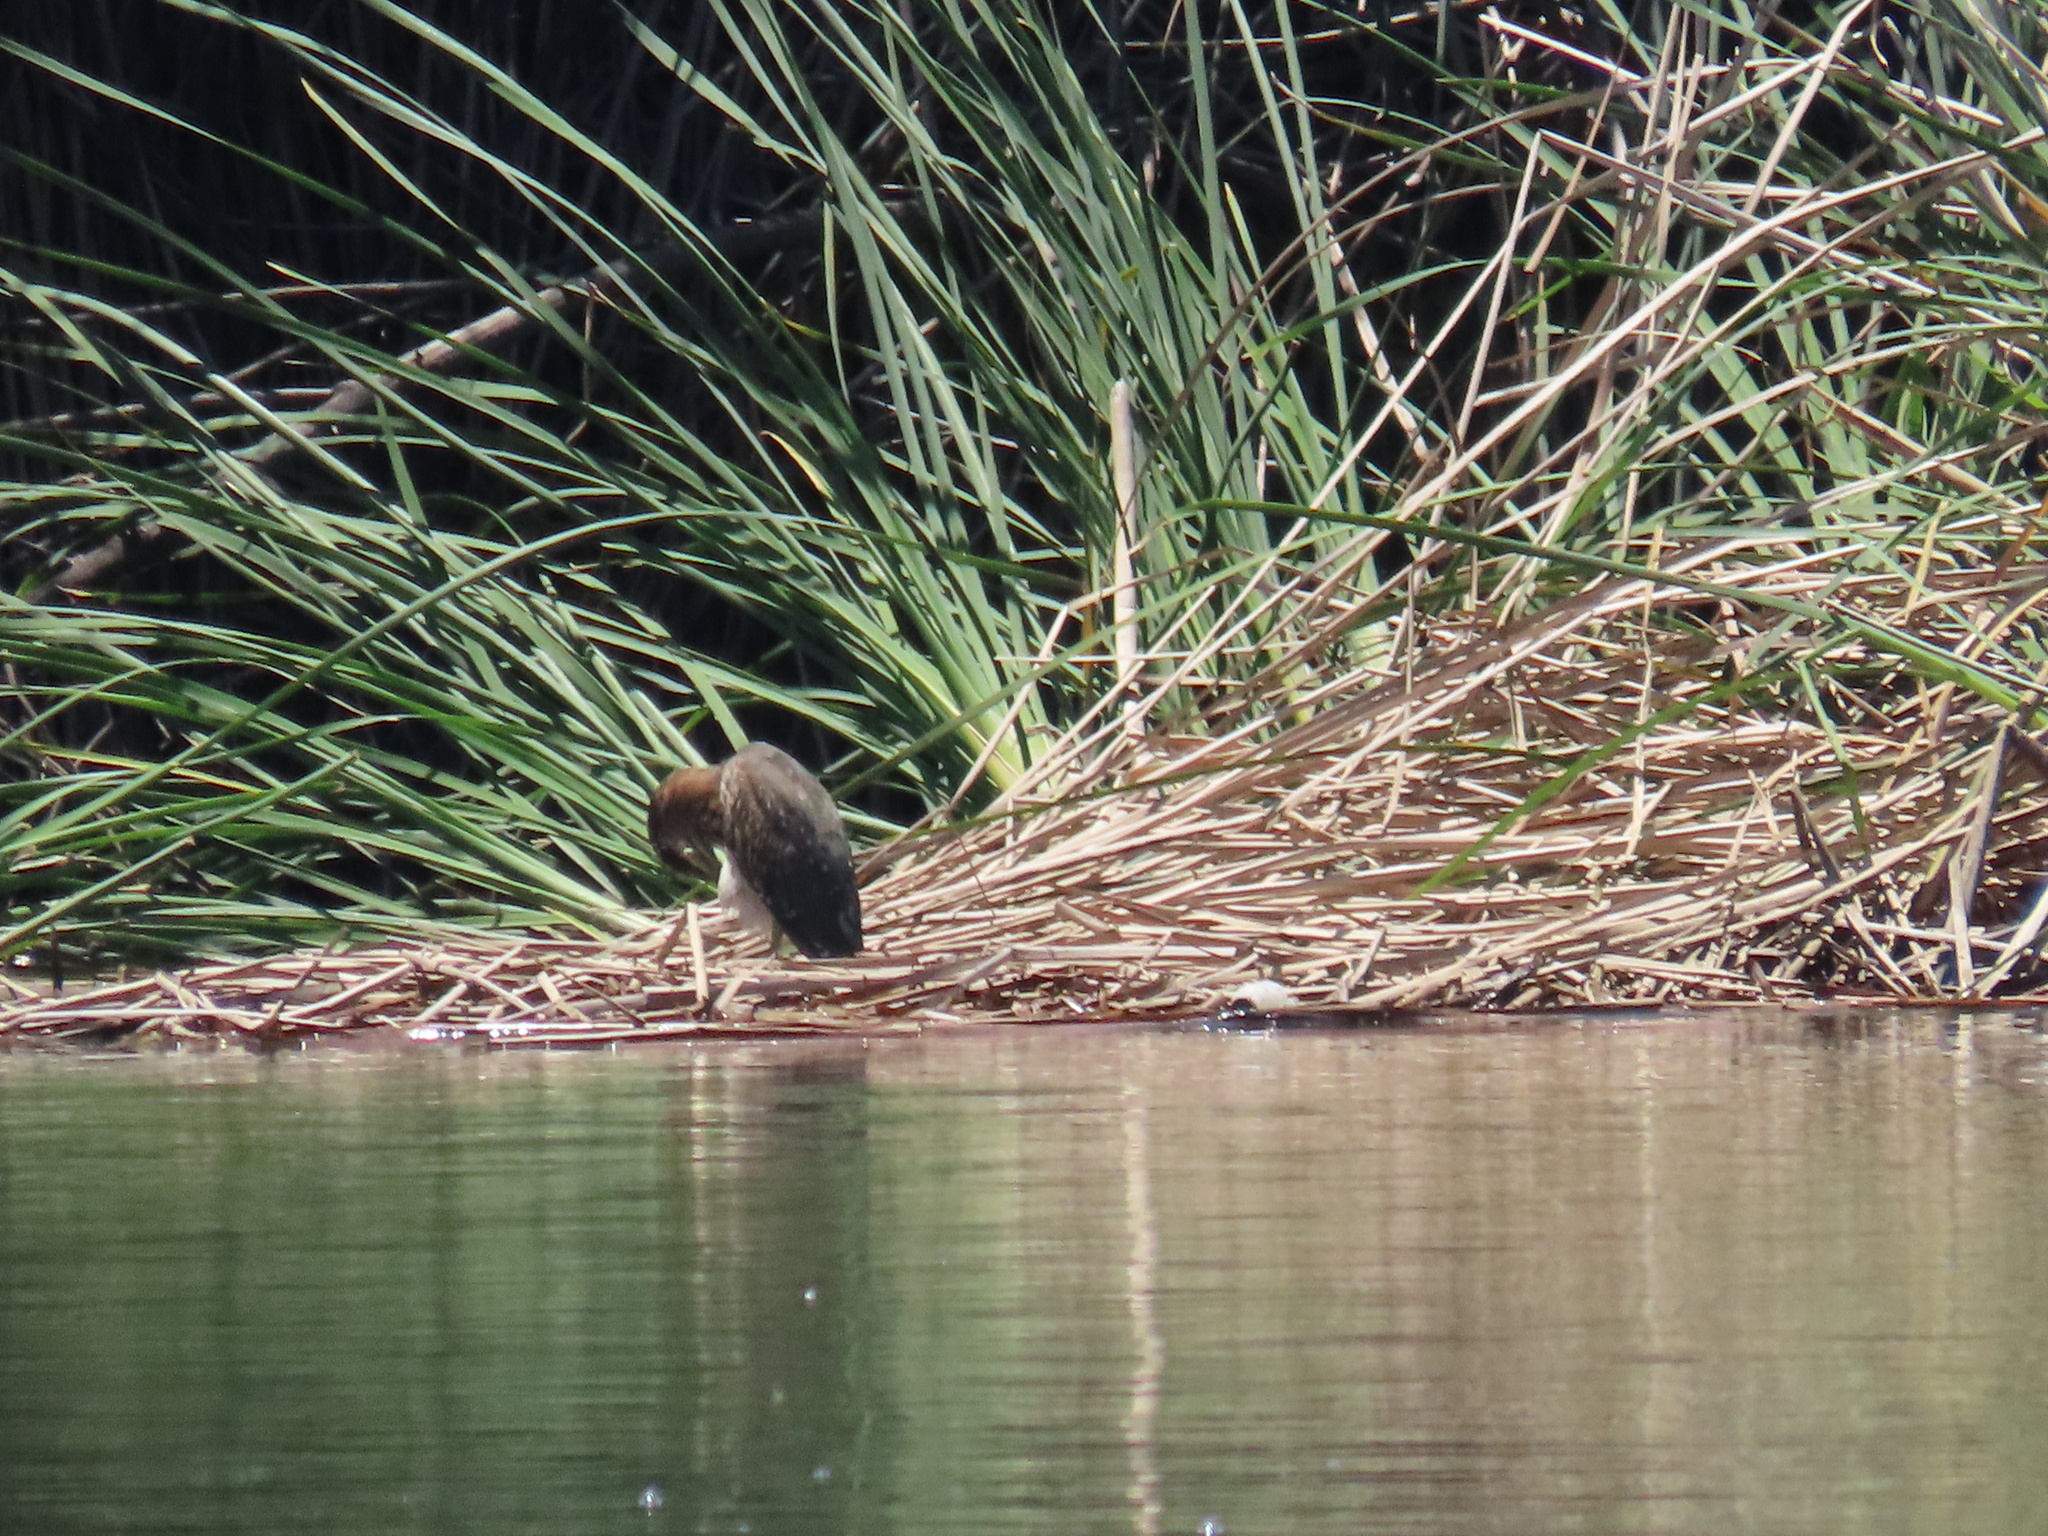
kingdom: Animalia
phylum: Chordata
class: Aves
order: Pelecaniformes
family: Ardeidae
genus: Butorides
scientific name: Butorides virescens
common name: Green heron
